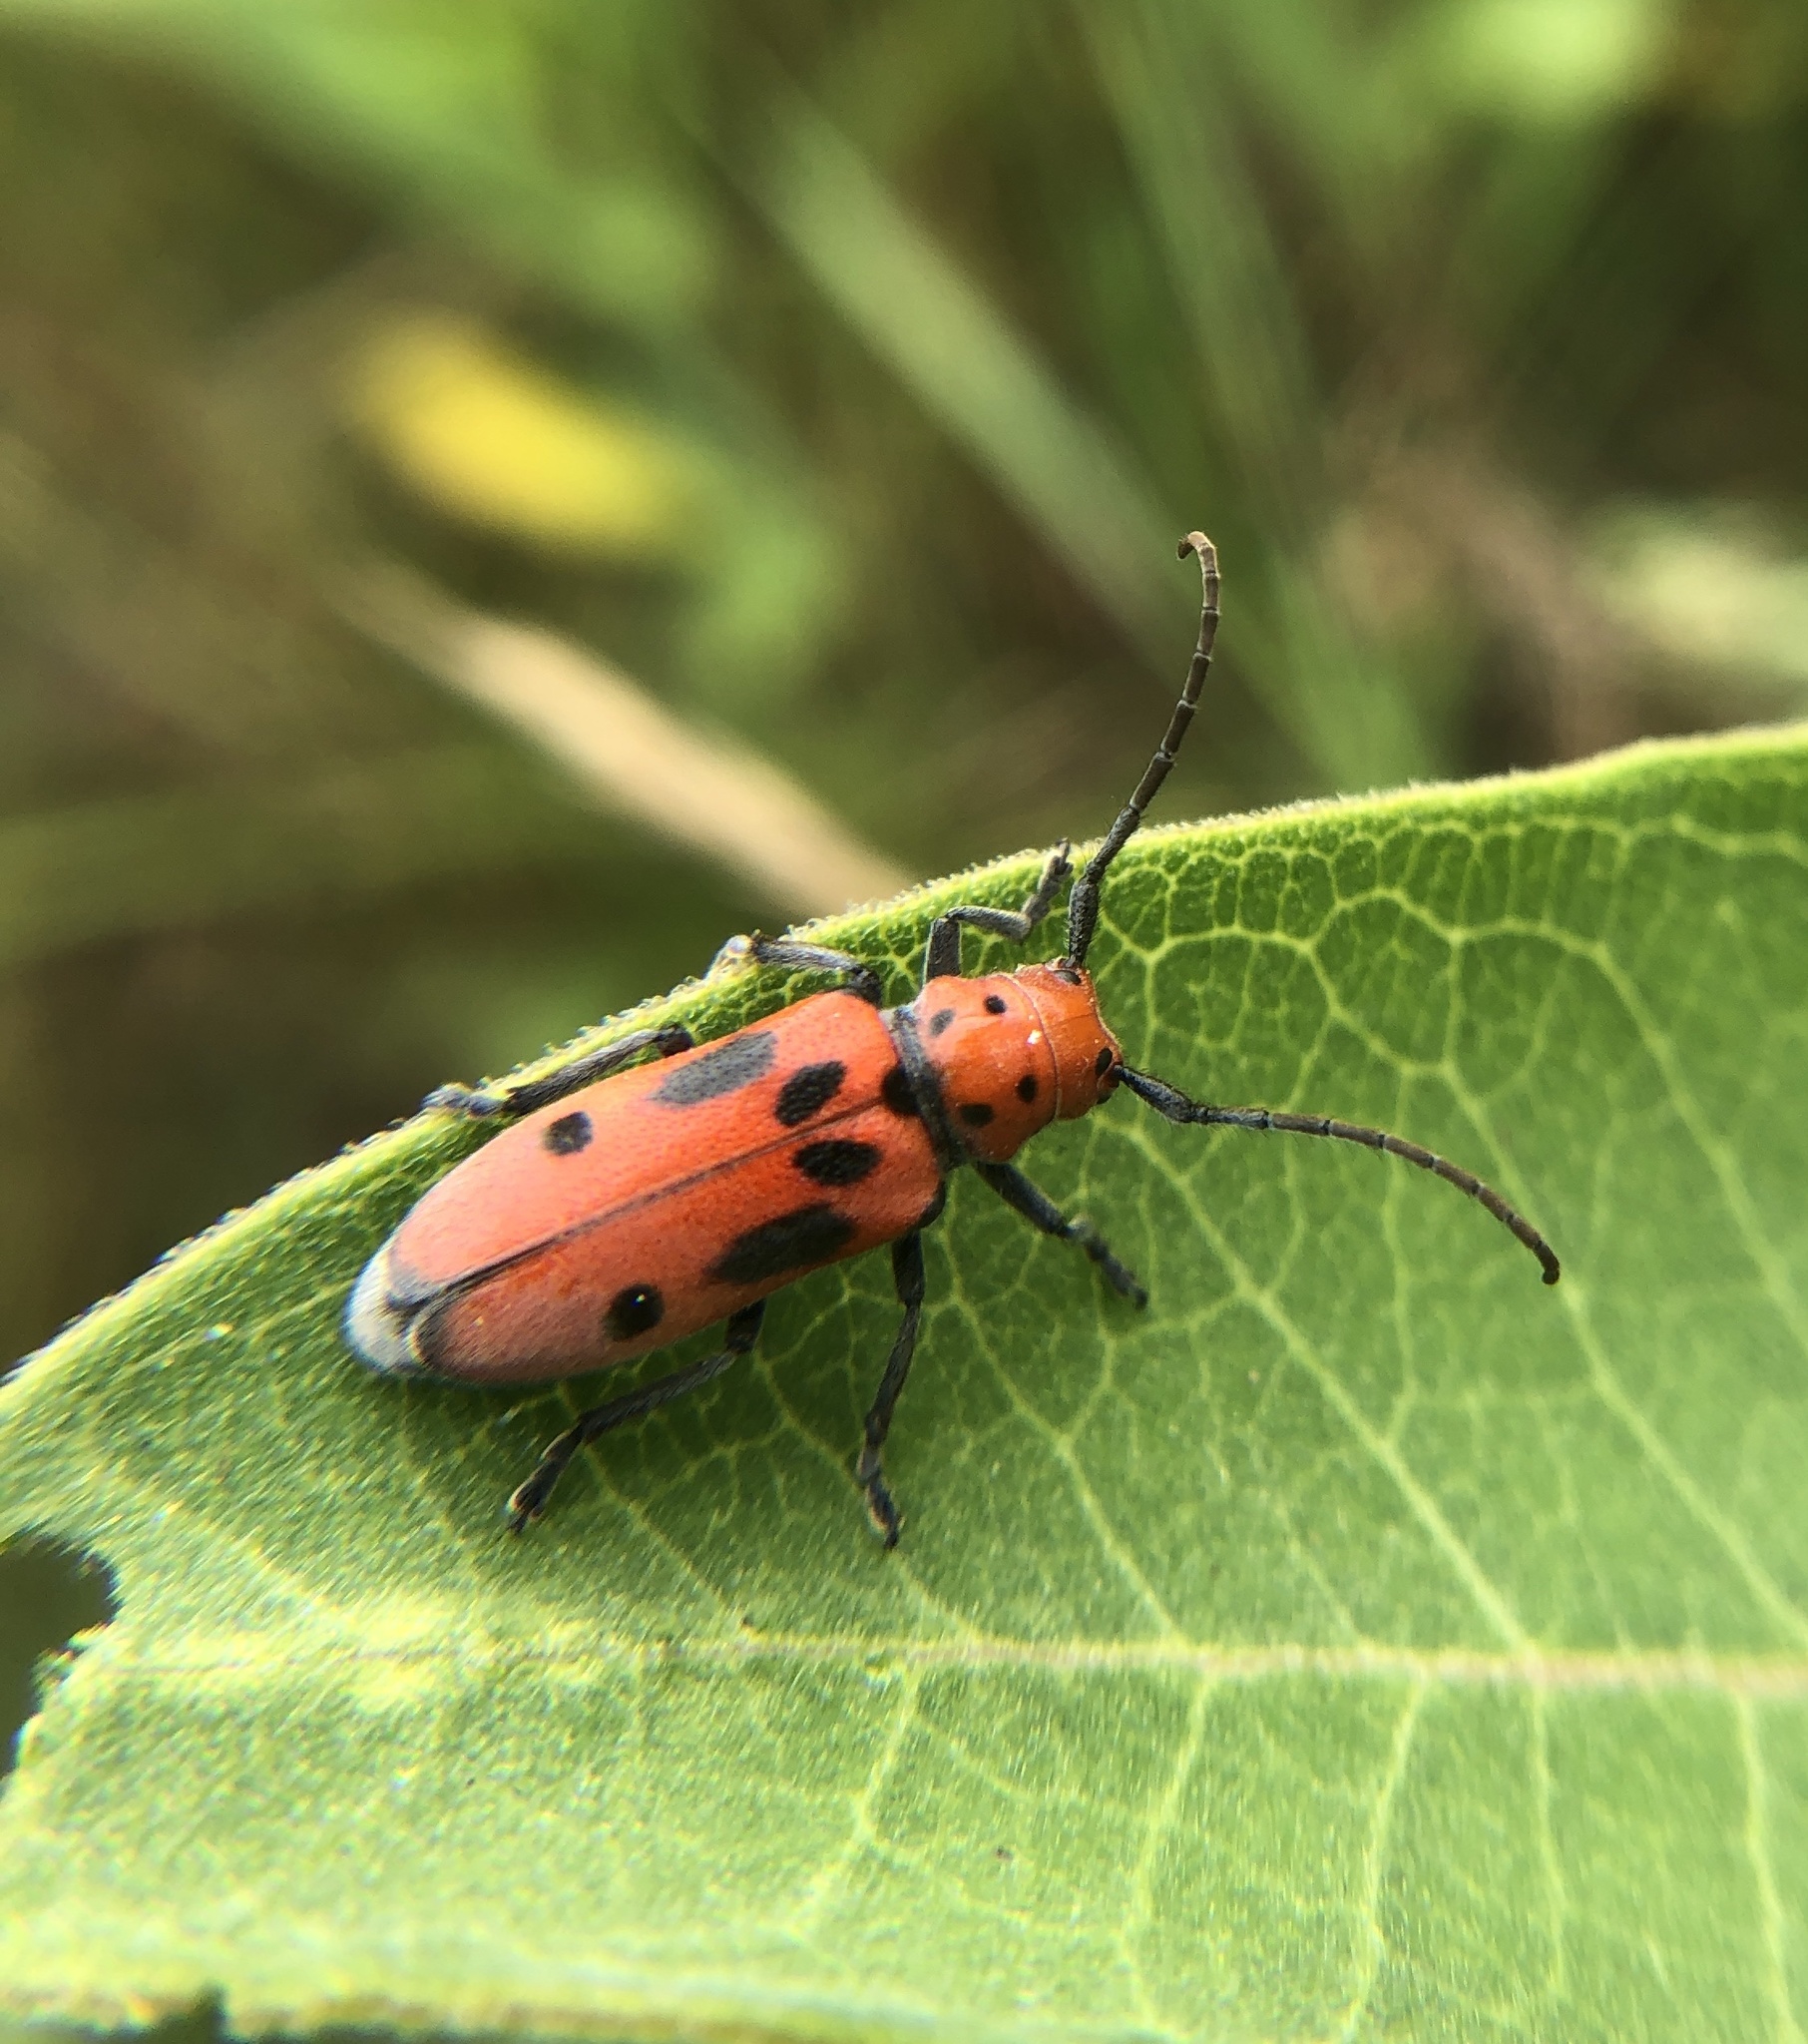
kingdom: Animalia
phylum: Arthropoda
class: Insecta
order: Coleoptera
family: Cerambycidae
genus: Tetraopes
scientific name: Tetraopes tetrophthalmus
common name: Red milkweed beetle
